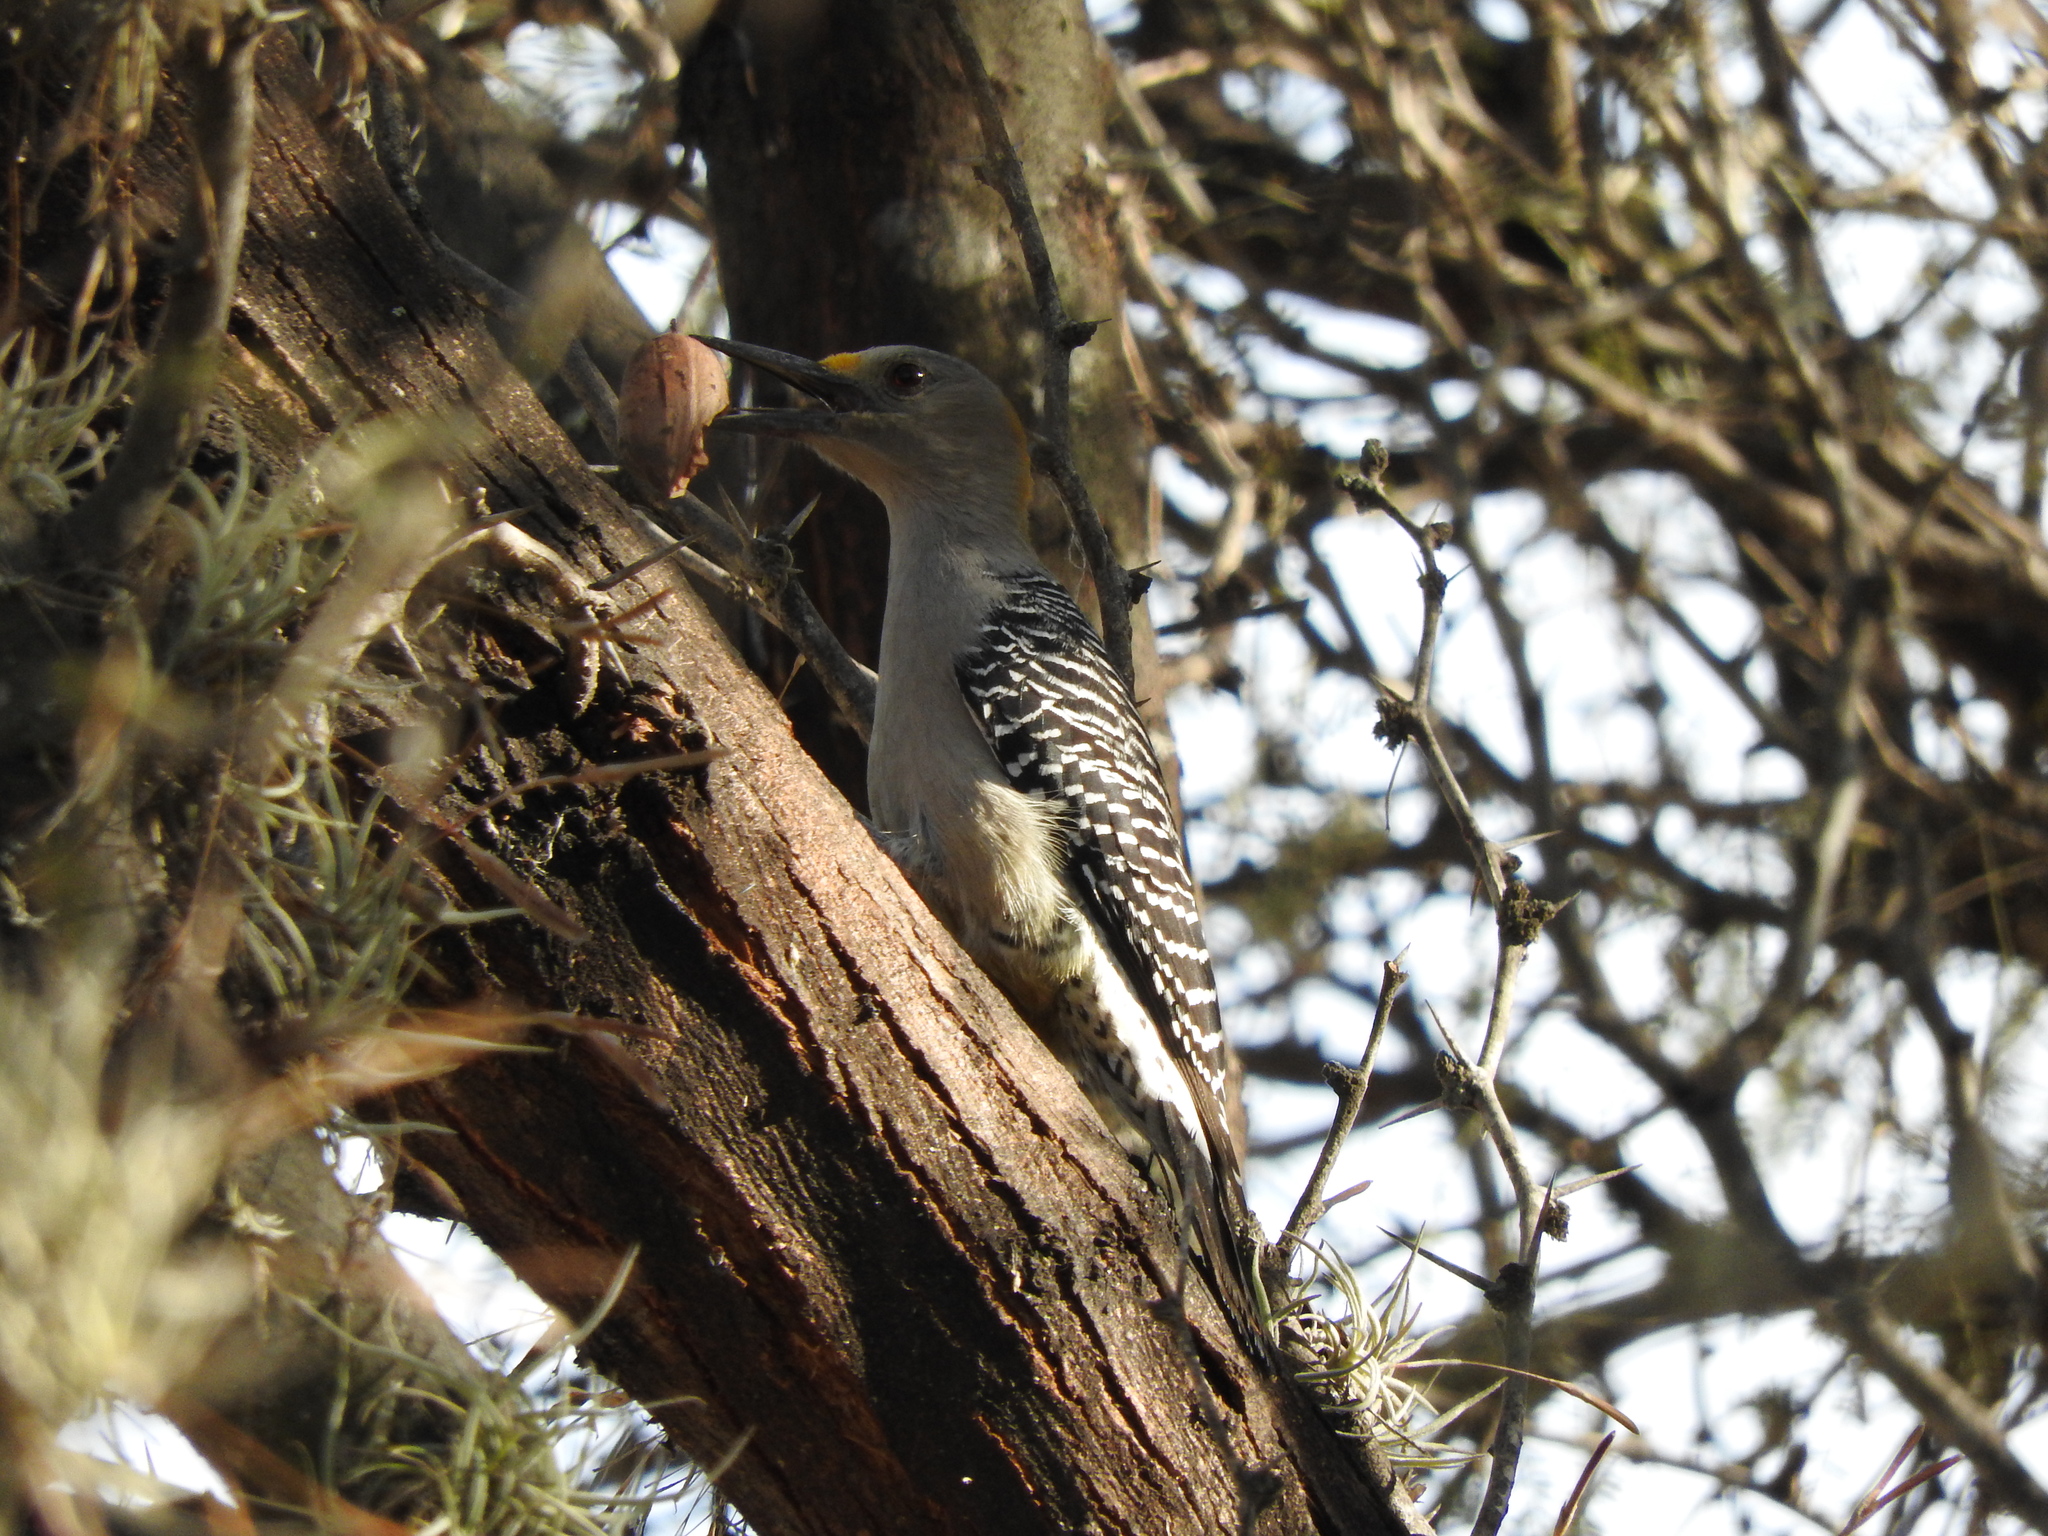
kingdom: Animalia
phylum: Chordata
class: Aves
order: Piciformes
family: Picidae
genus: Melanerpes
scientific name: Melanerpes aurifrons
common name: Golden-fronted woodpecker
